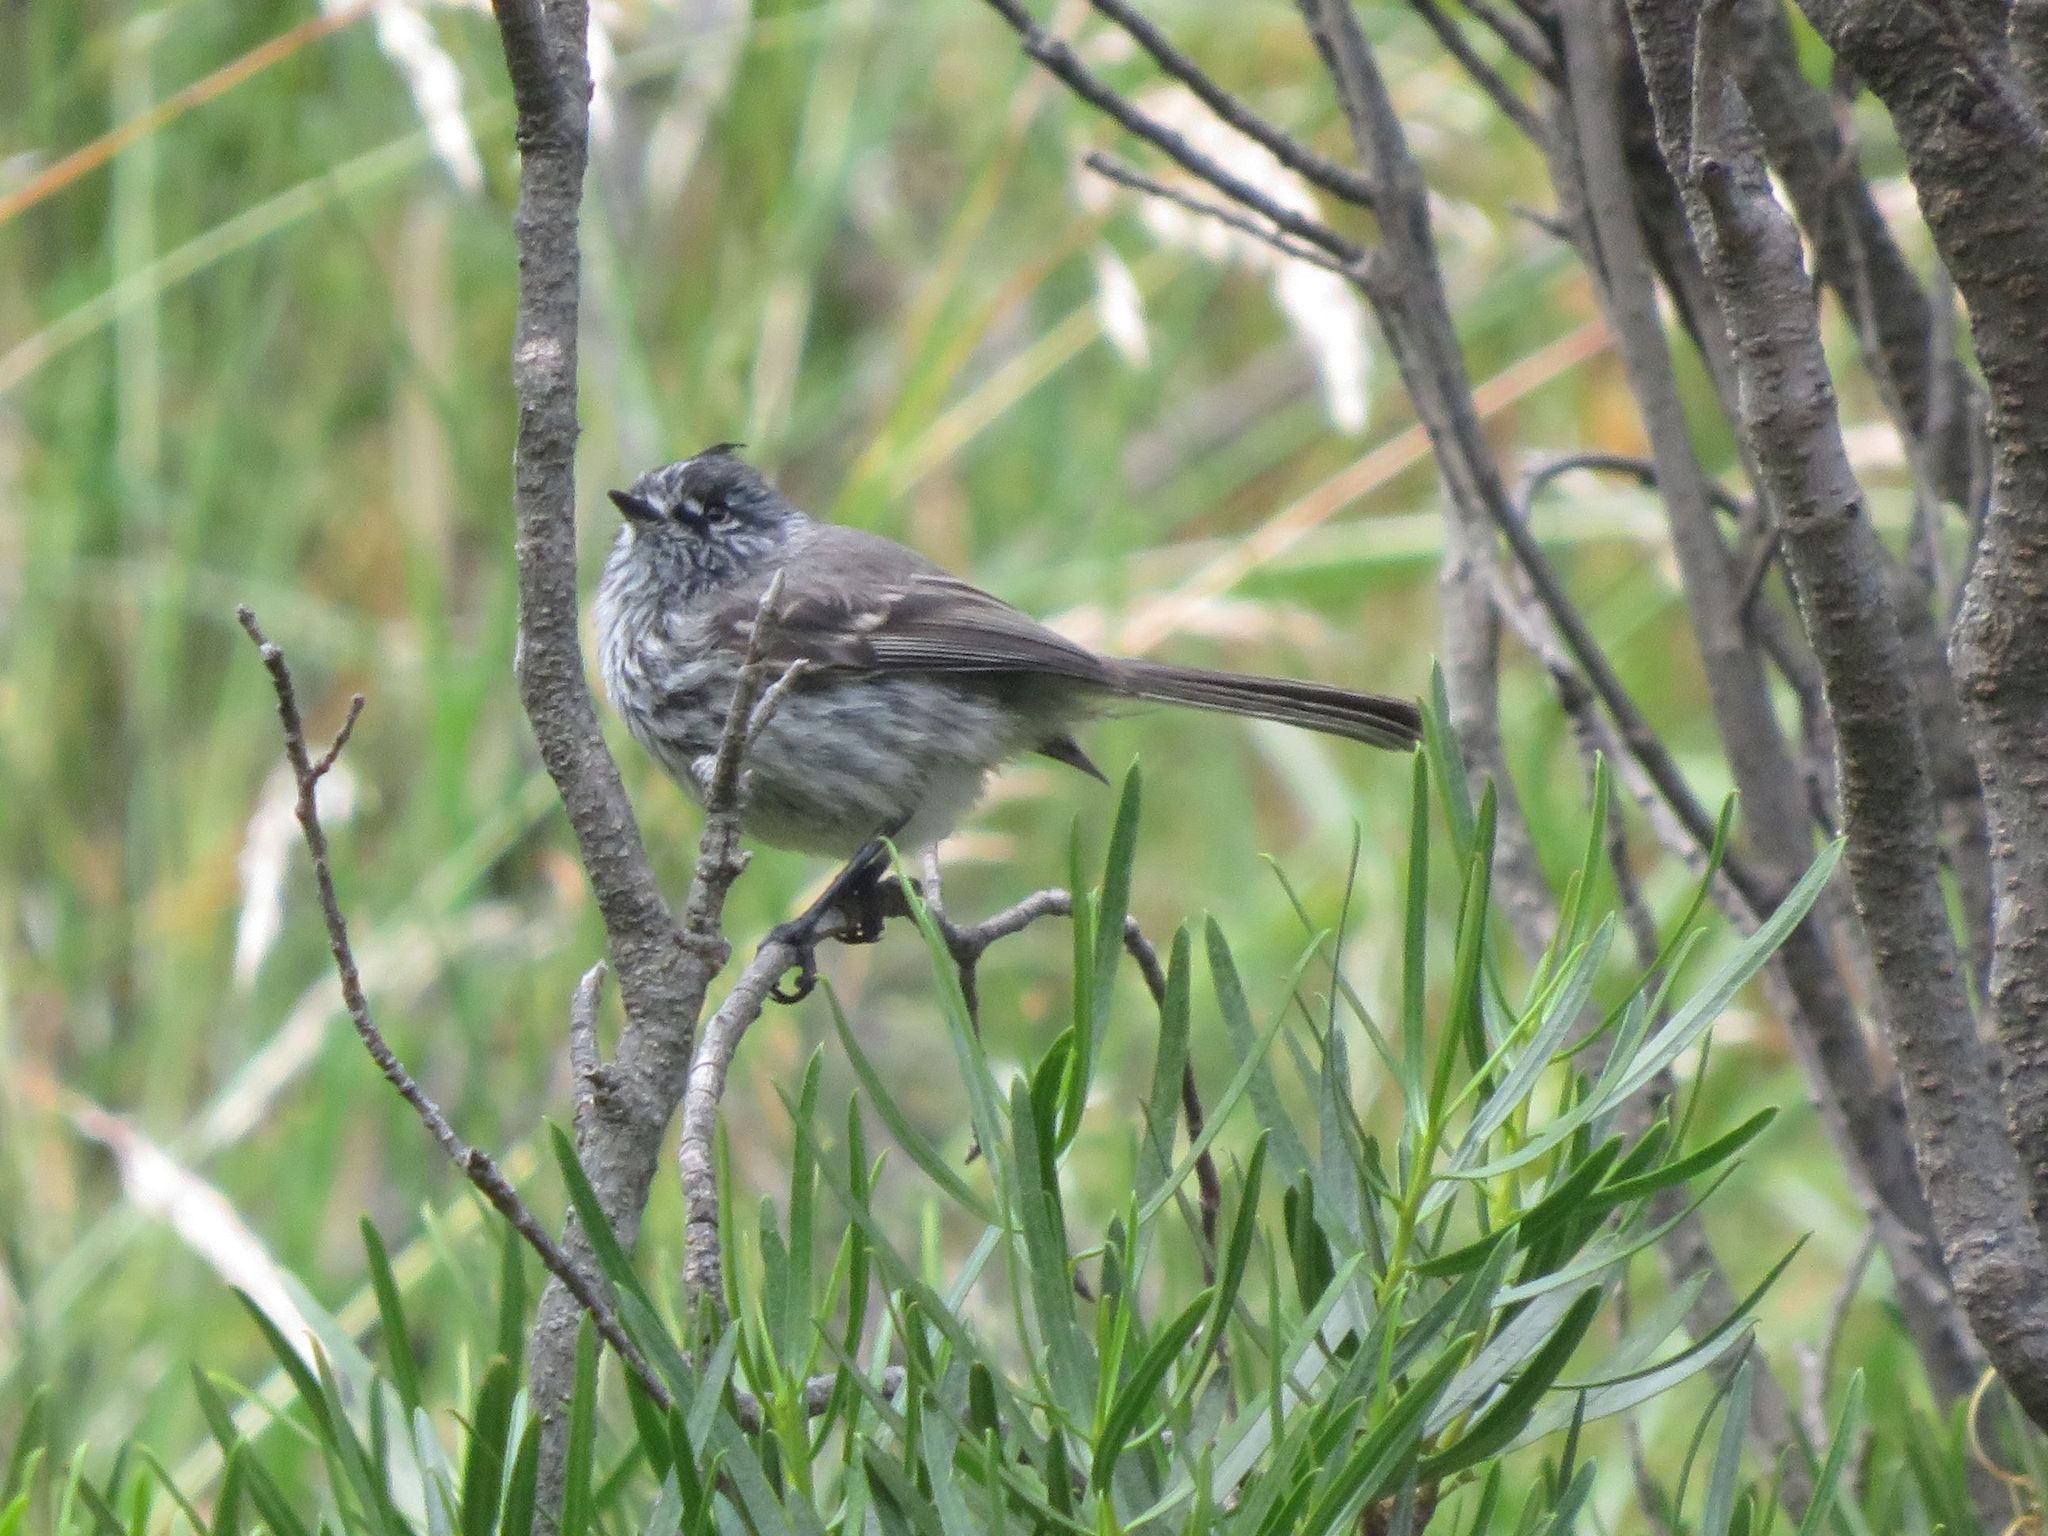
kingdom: Animalia
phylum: Chordata
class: Aves
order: Passeriformes
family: Tyrannidae
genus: Anairetes
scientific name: Anairetes parulus
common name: Tufted tit-tyrant
